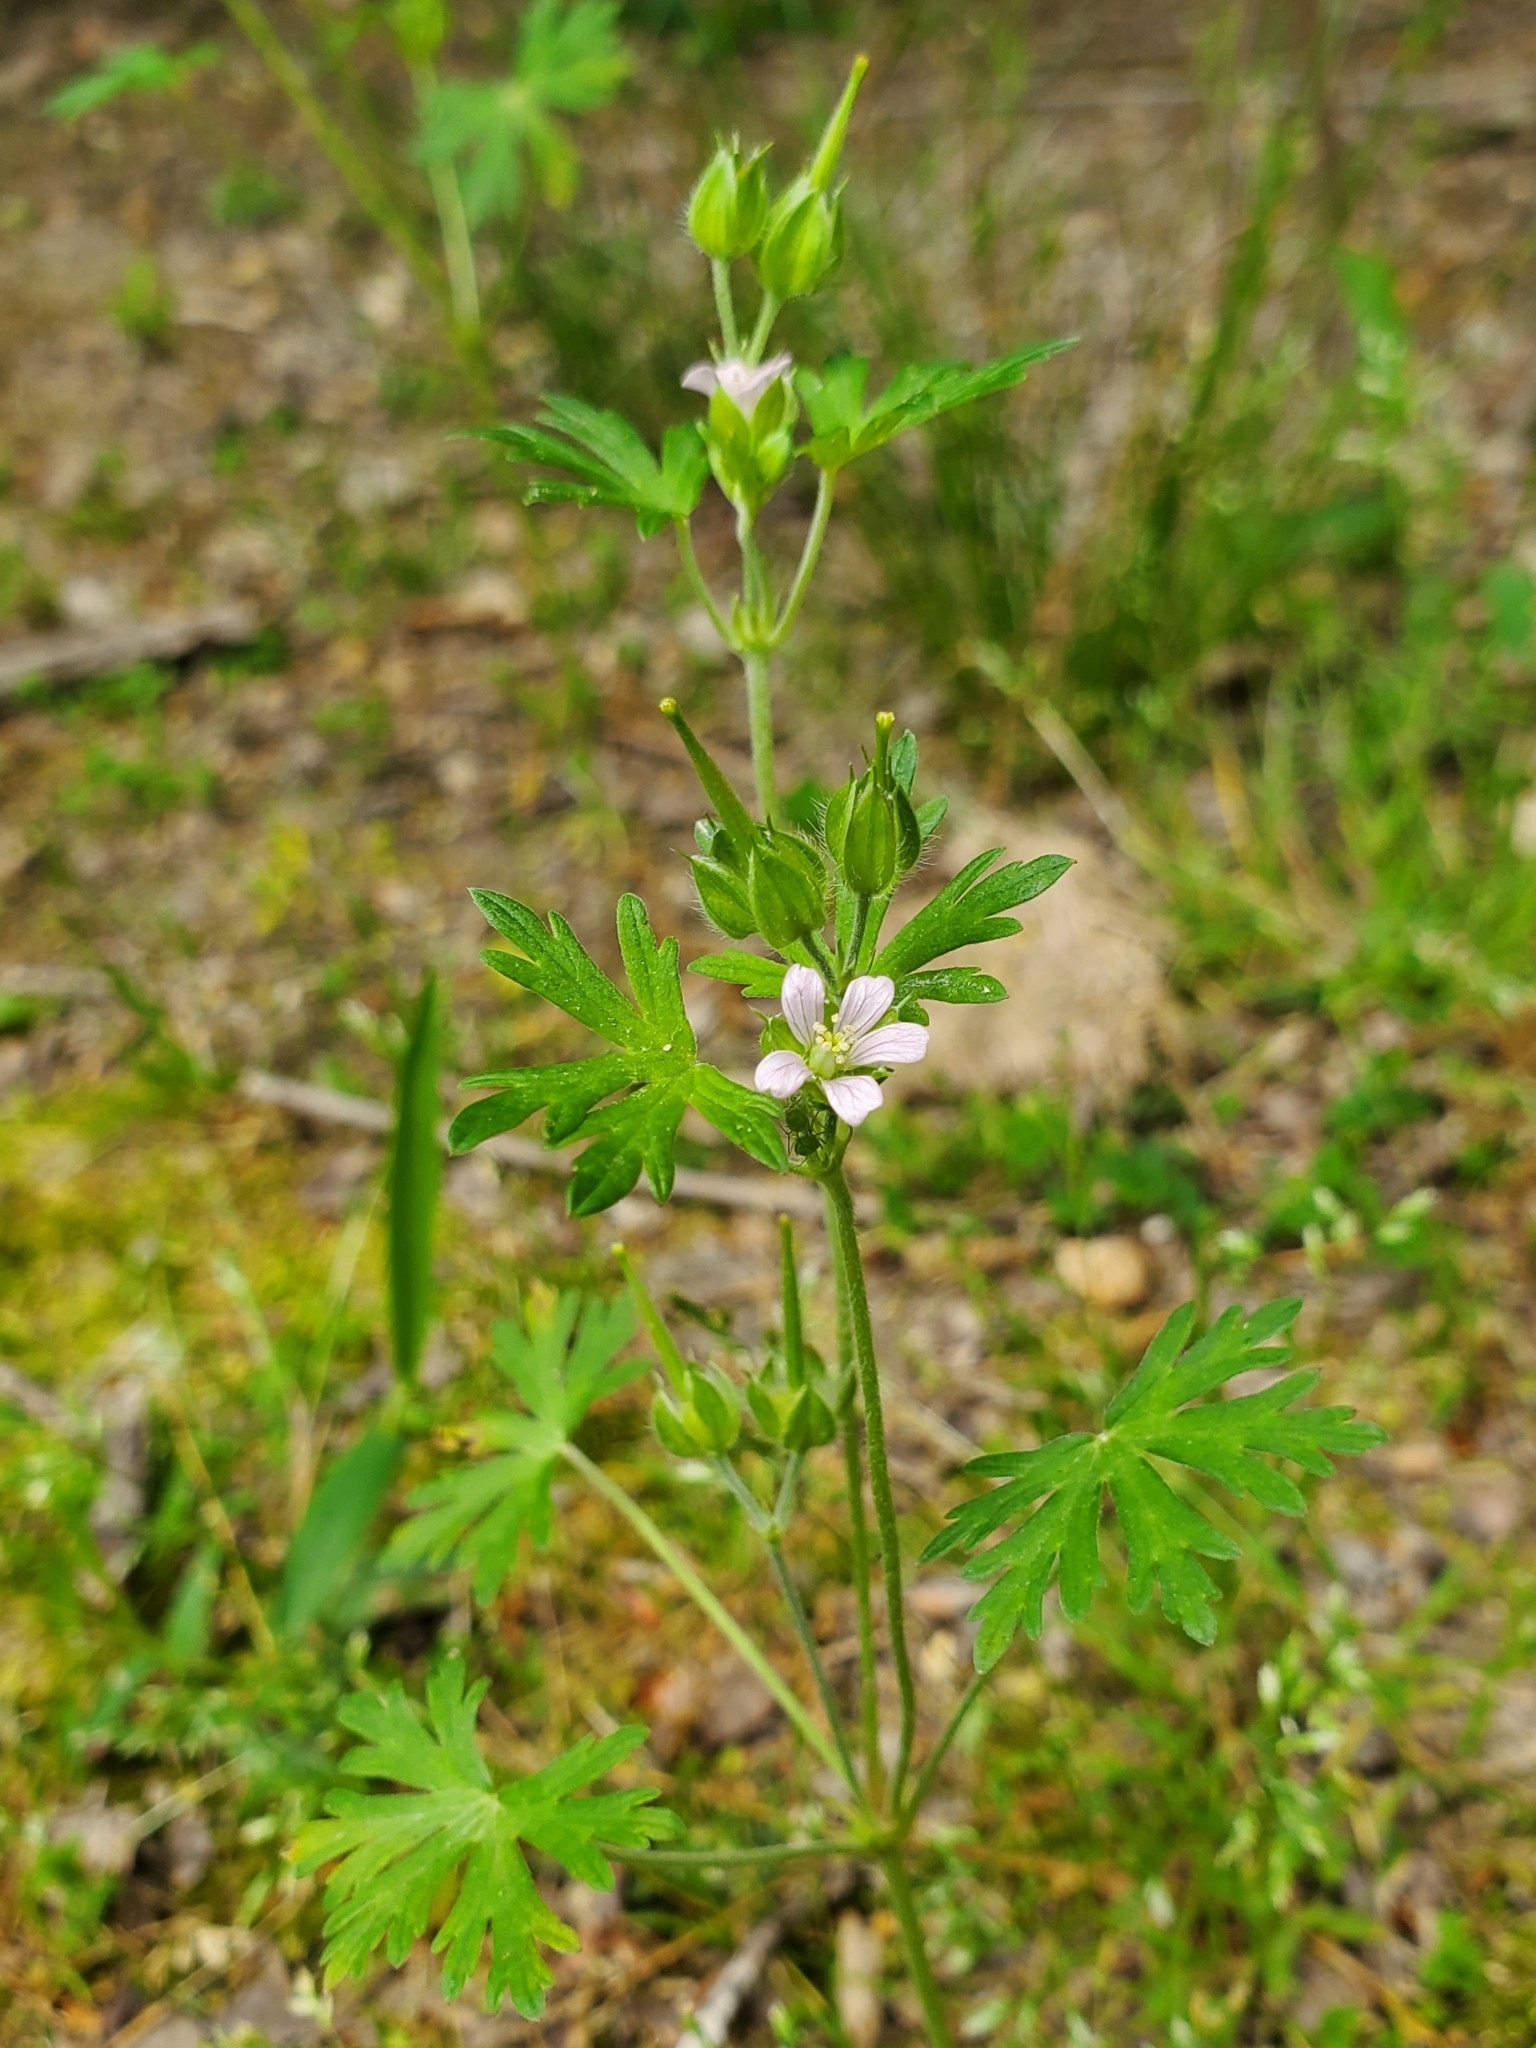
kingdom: Plantae
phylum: Tracheophyta
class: Magnoliopsida
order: Geraniales
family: Geraniaceae
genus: Geranium
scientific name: Geranium carolinianum
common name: Carolina crane's-bill
